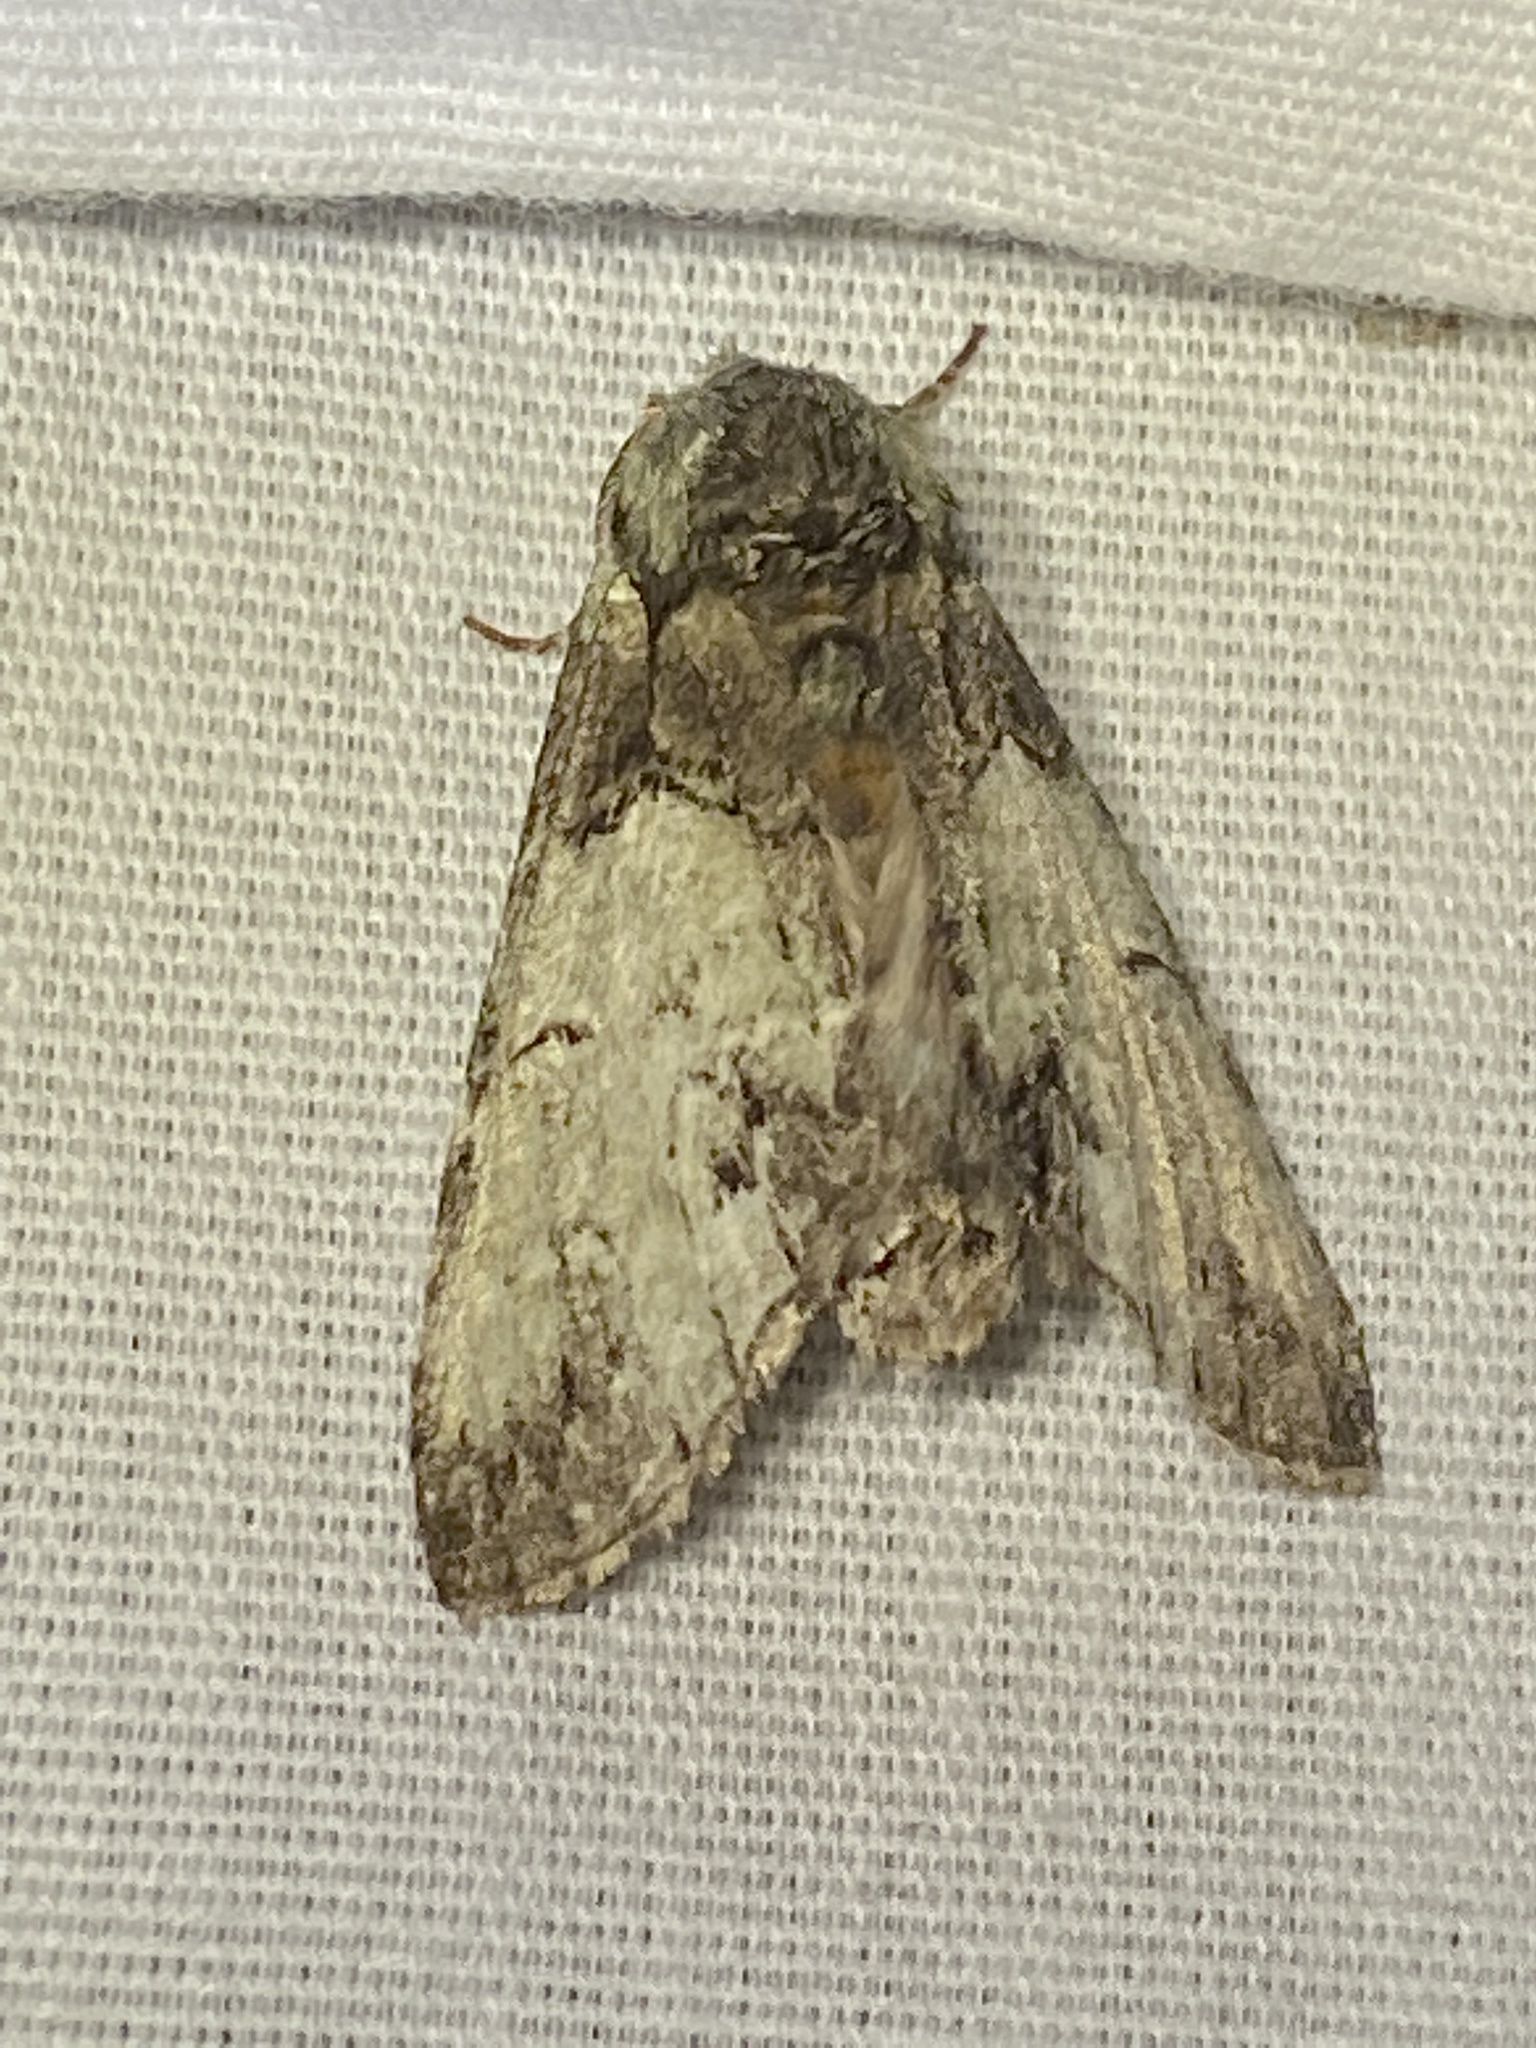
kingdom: Animalia
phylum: Arthropoda
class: Insecta
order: Lepidoptera
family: Notodontidae
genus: Macrurocampa
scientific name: Macrurocampa marthesia
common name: Mottled prominent
